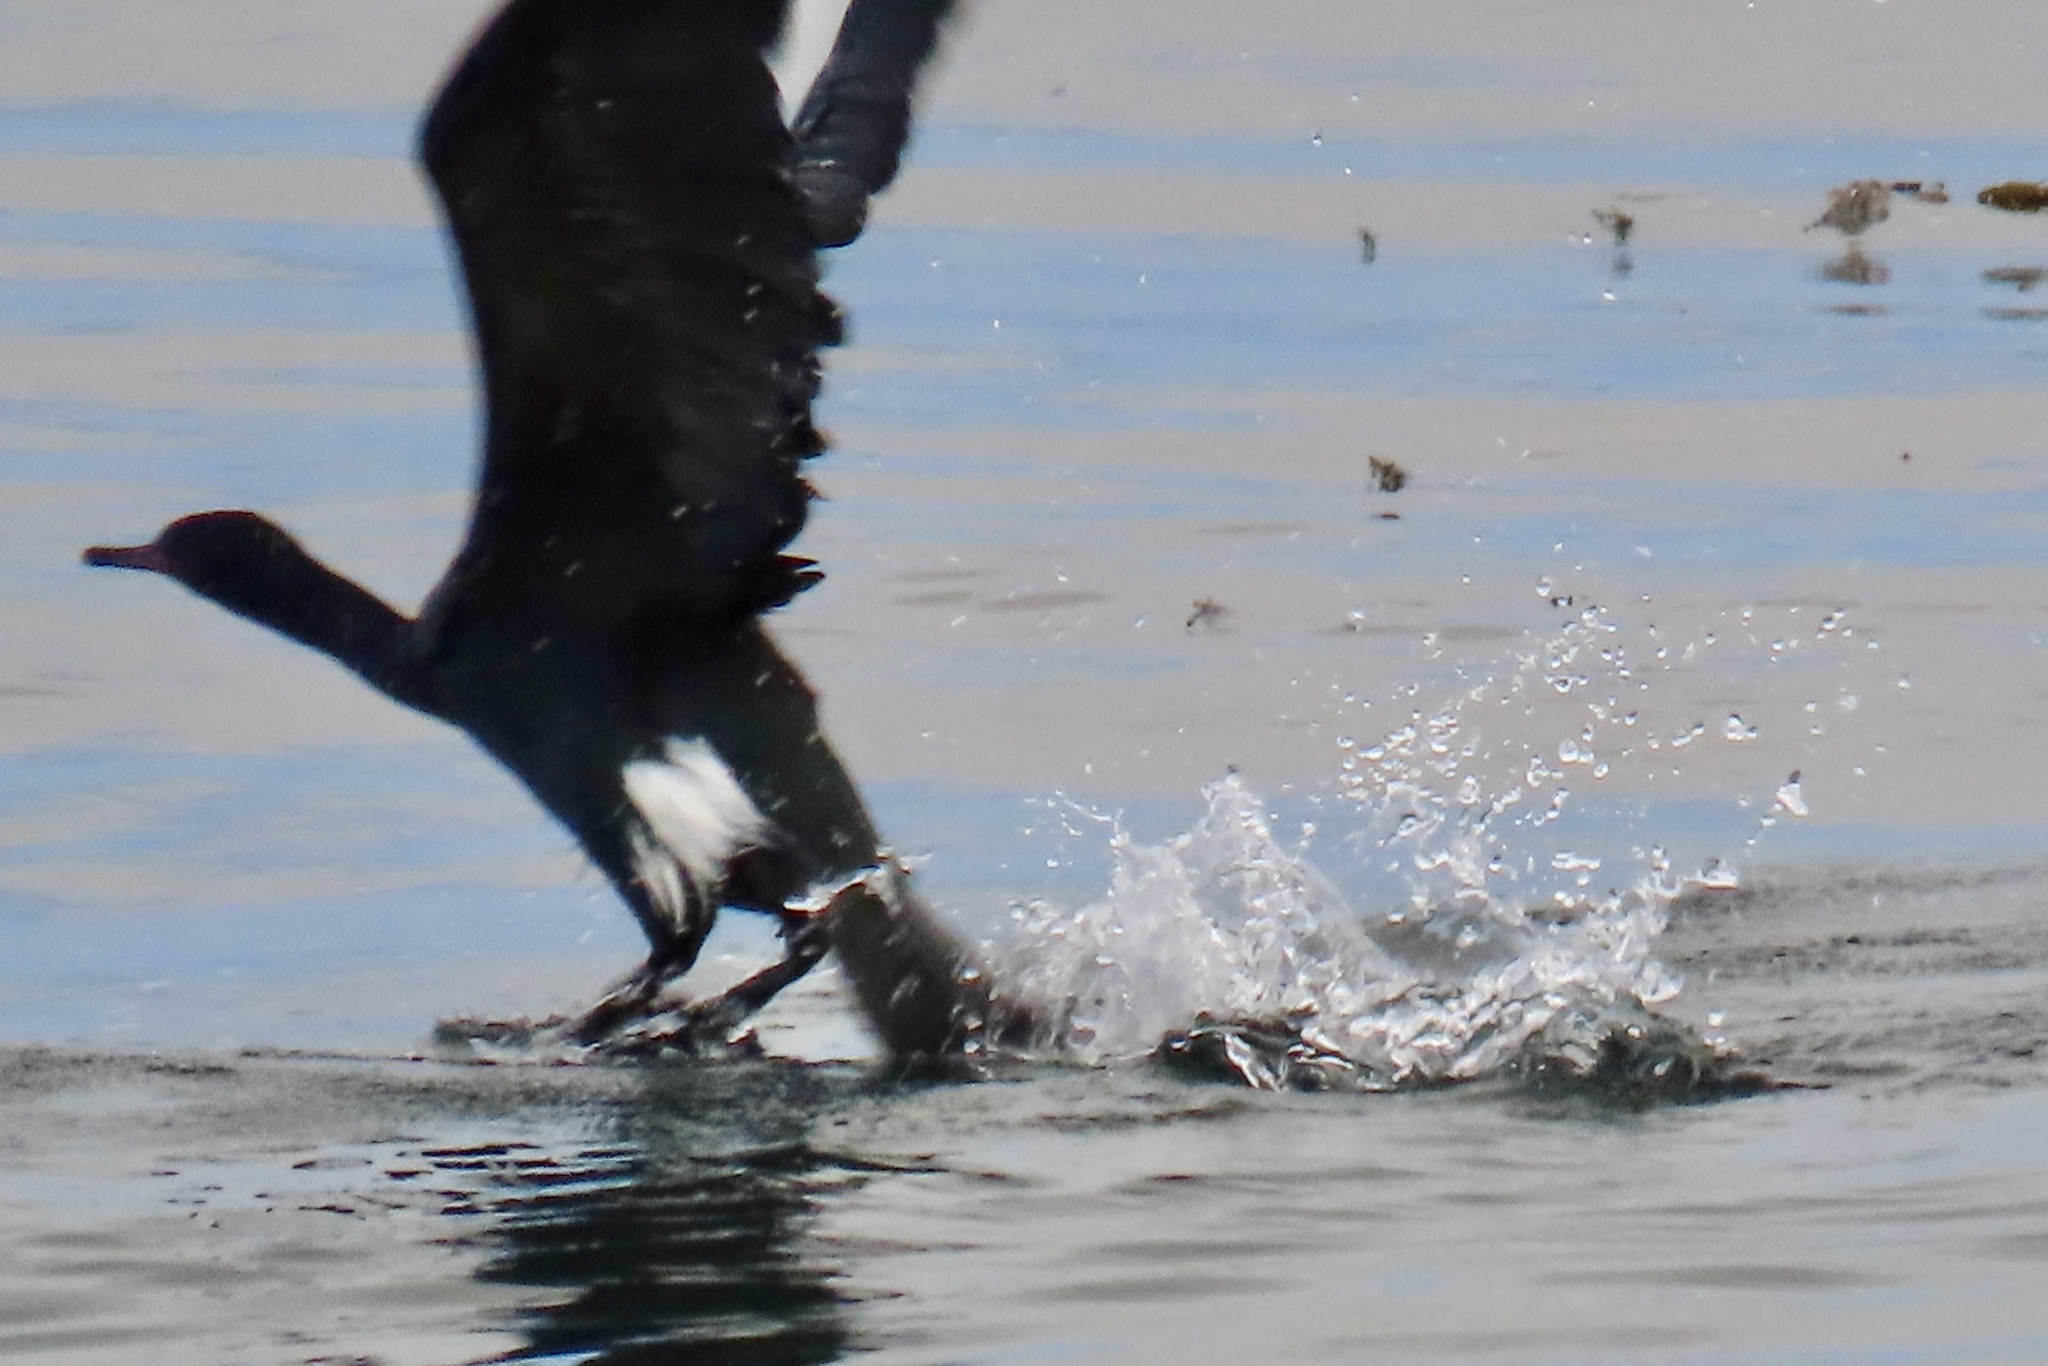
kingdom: Animalia
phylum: Chordata
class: Aves
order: Suliformes
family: Phalacrocoracidae
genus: Phalacrocorax
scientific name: Phalacrocorax pelagicus
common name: Pelagic cormorant
